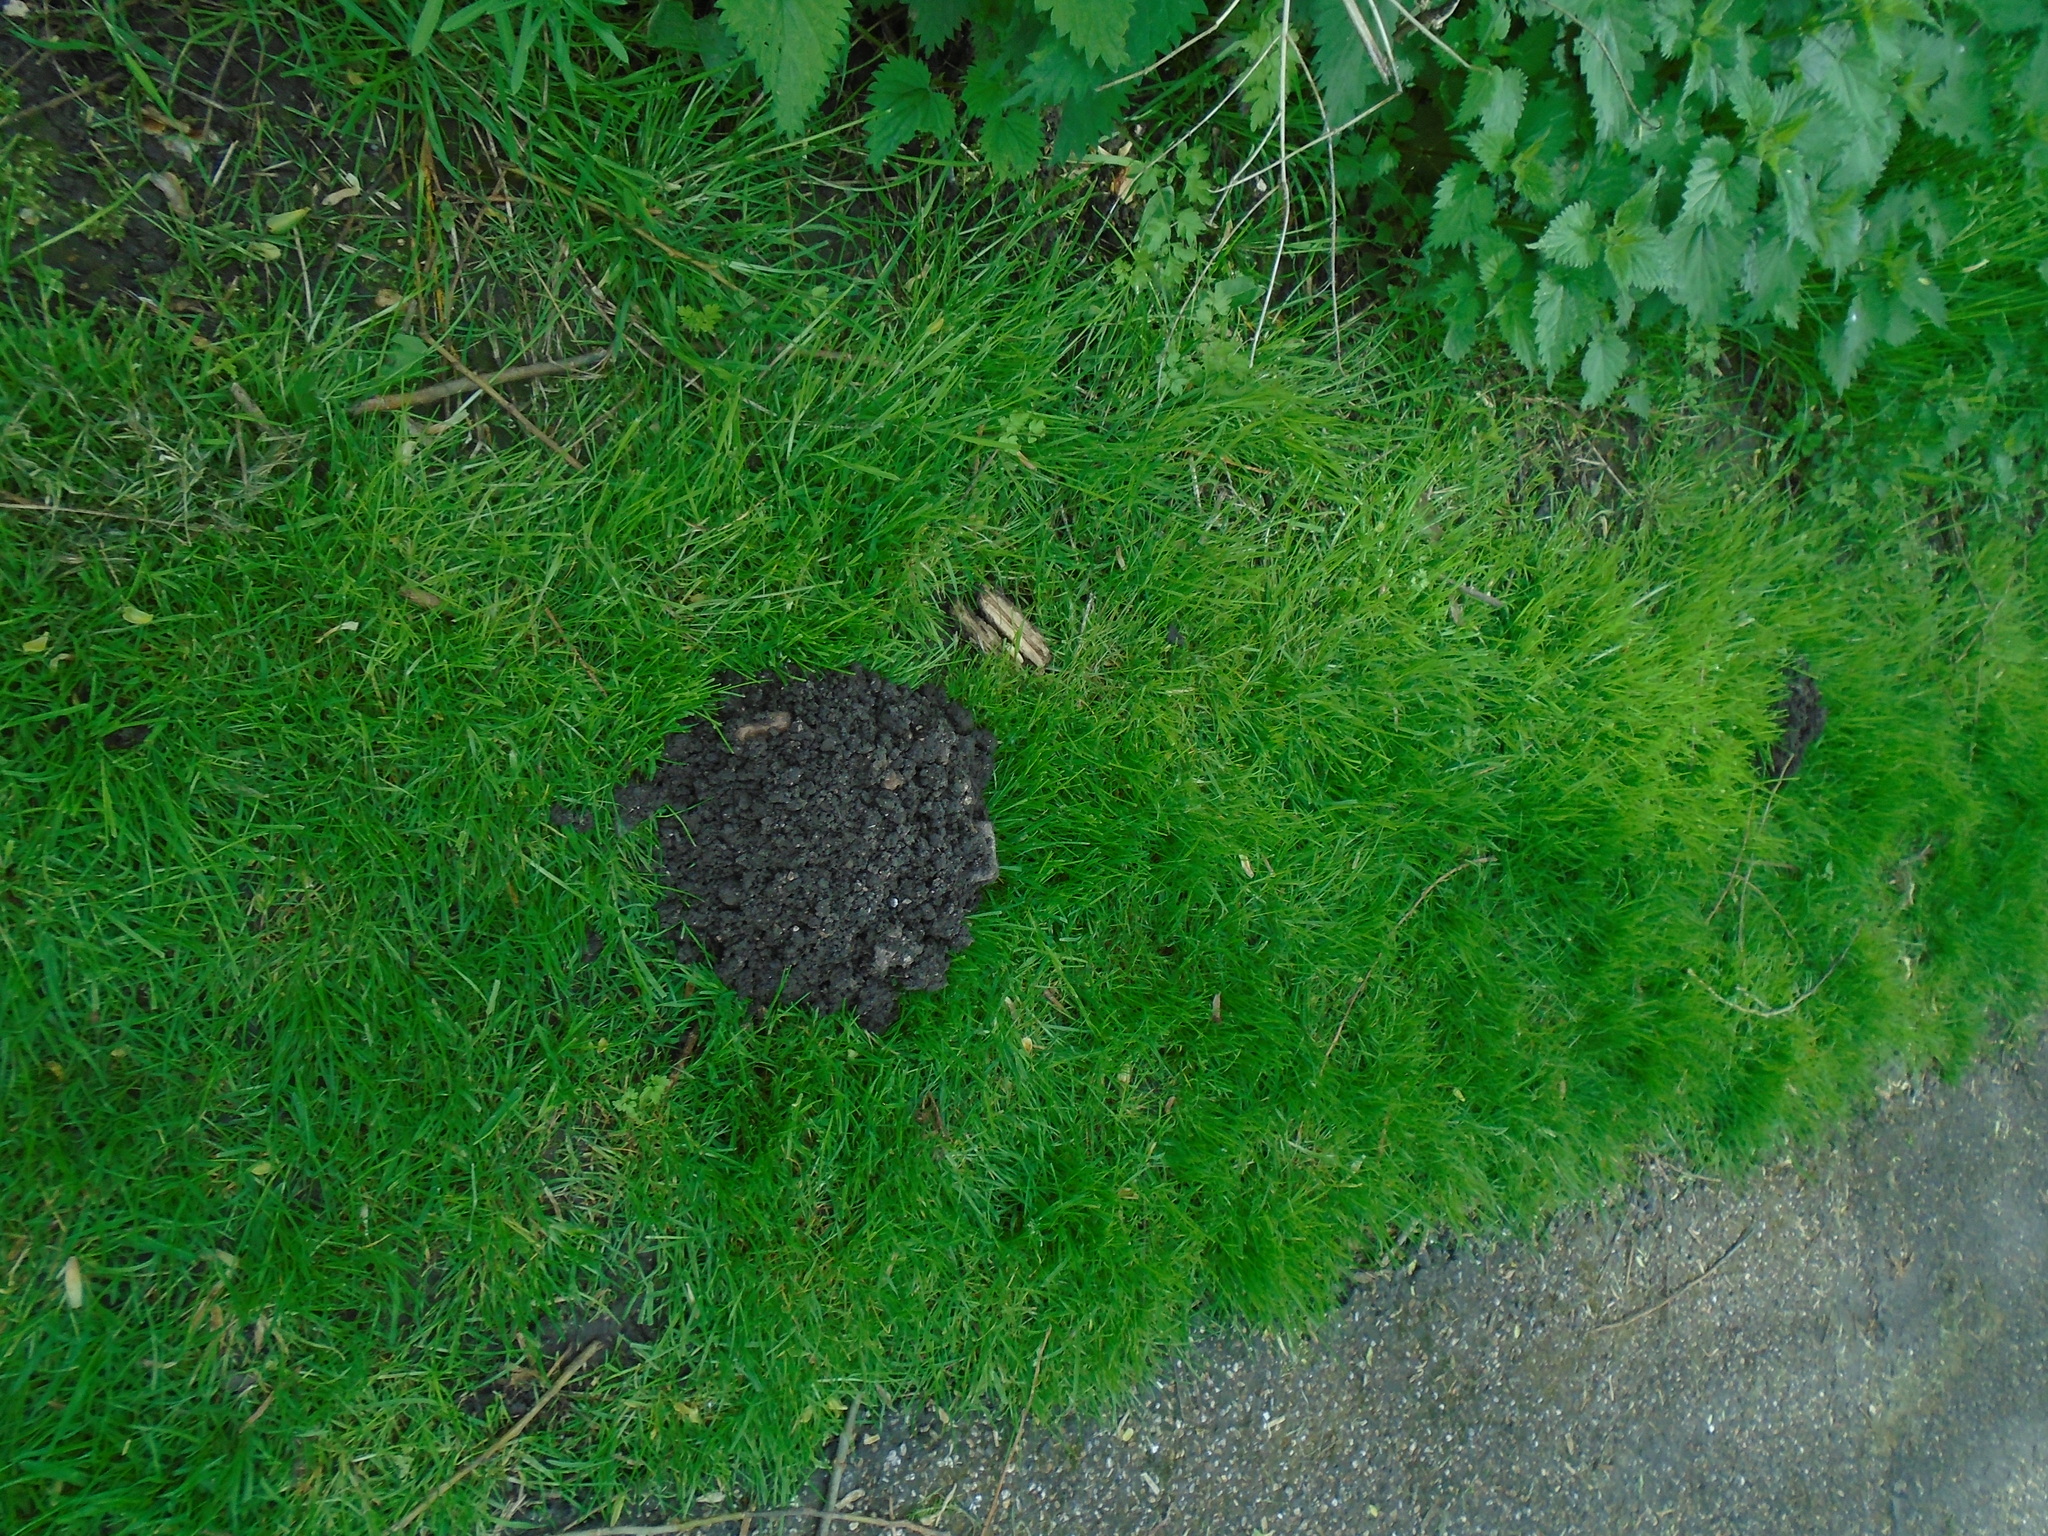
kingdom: Animalia
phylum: Chordata
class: Mammalia
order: Soricomorpha
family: Talpidae
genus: Talpa
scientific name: Talpa europaea
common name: European mole
